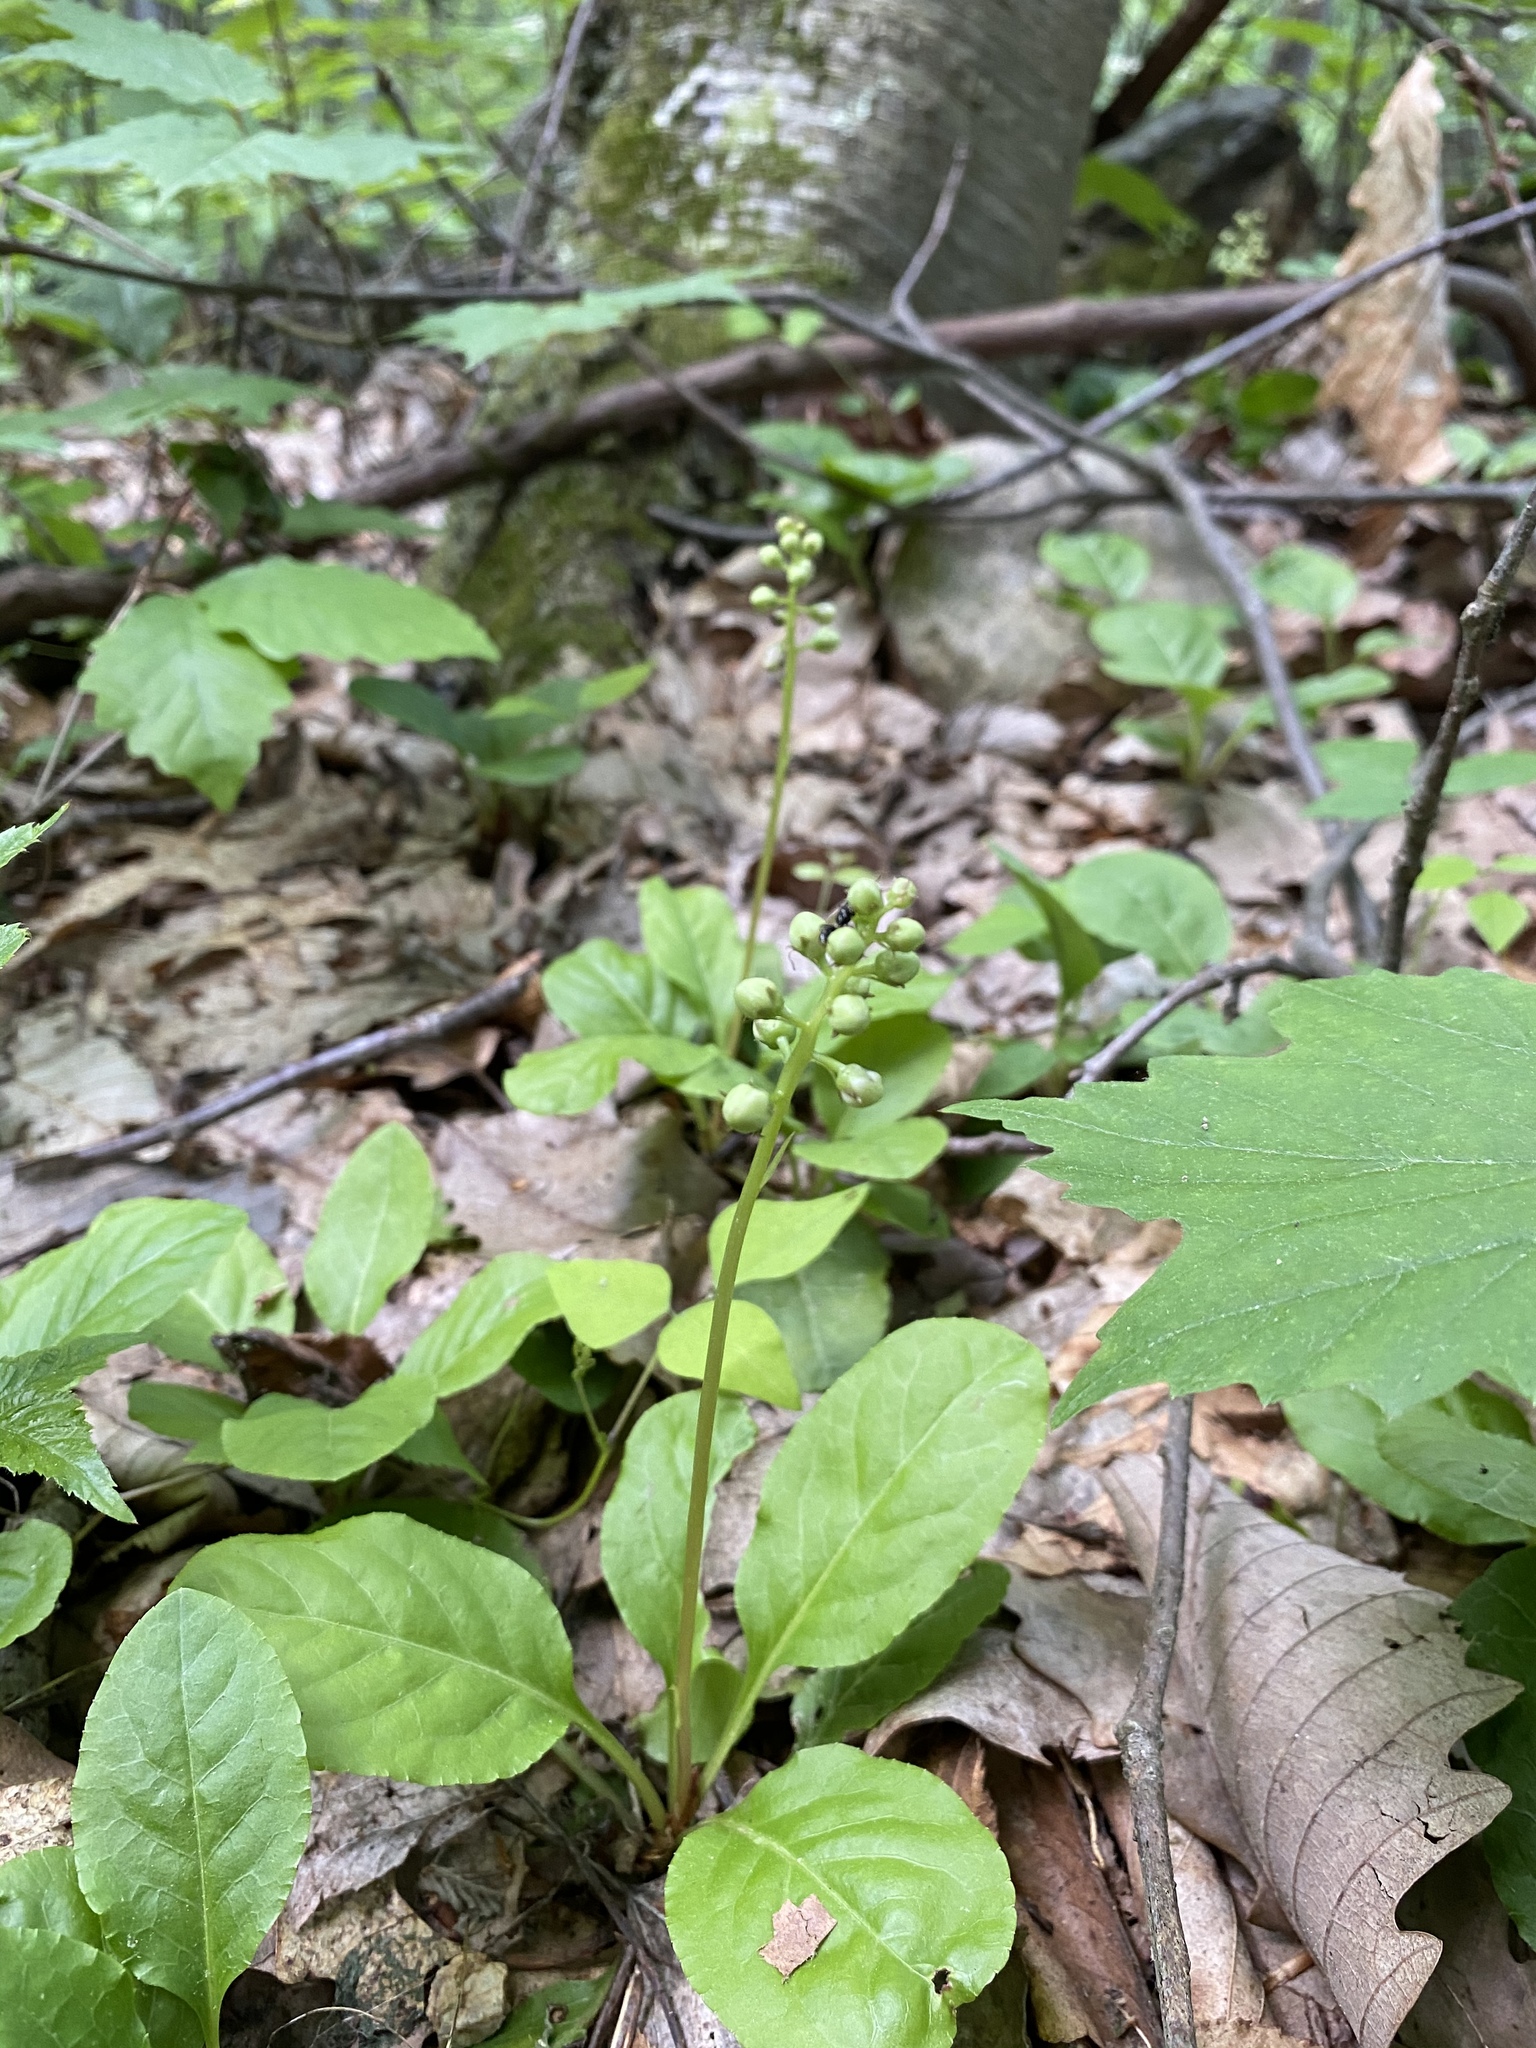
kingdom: Plantae
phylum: Tracheophyta
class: Magnoliopsida
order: Ericales
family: Ericaceae
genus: Pyrola
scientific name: Pyrola elliptica
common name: Shinleaf
